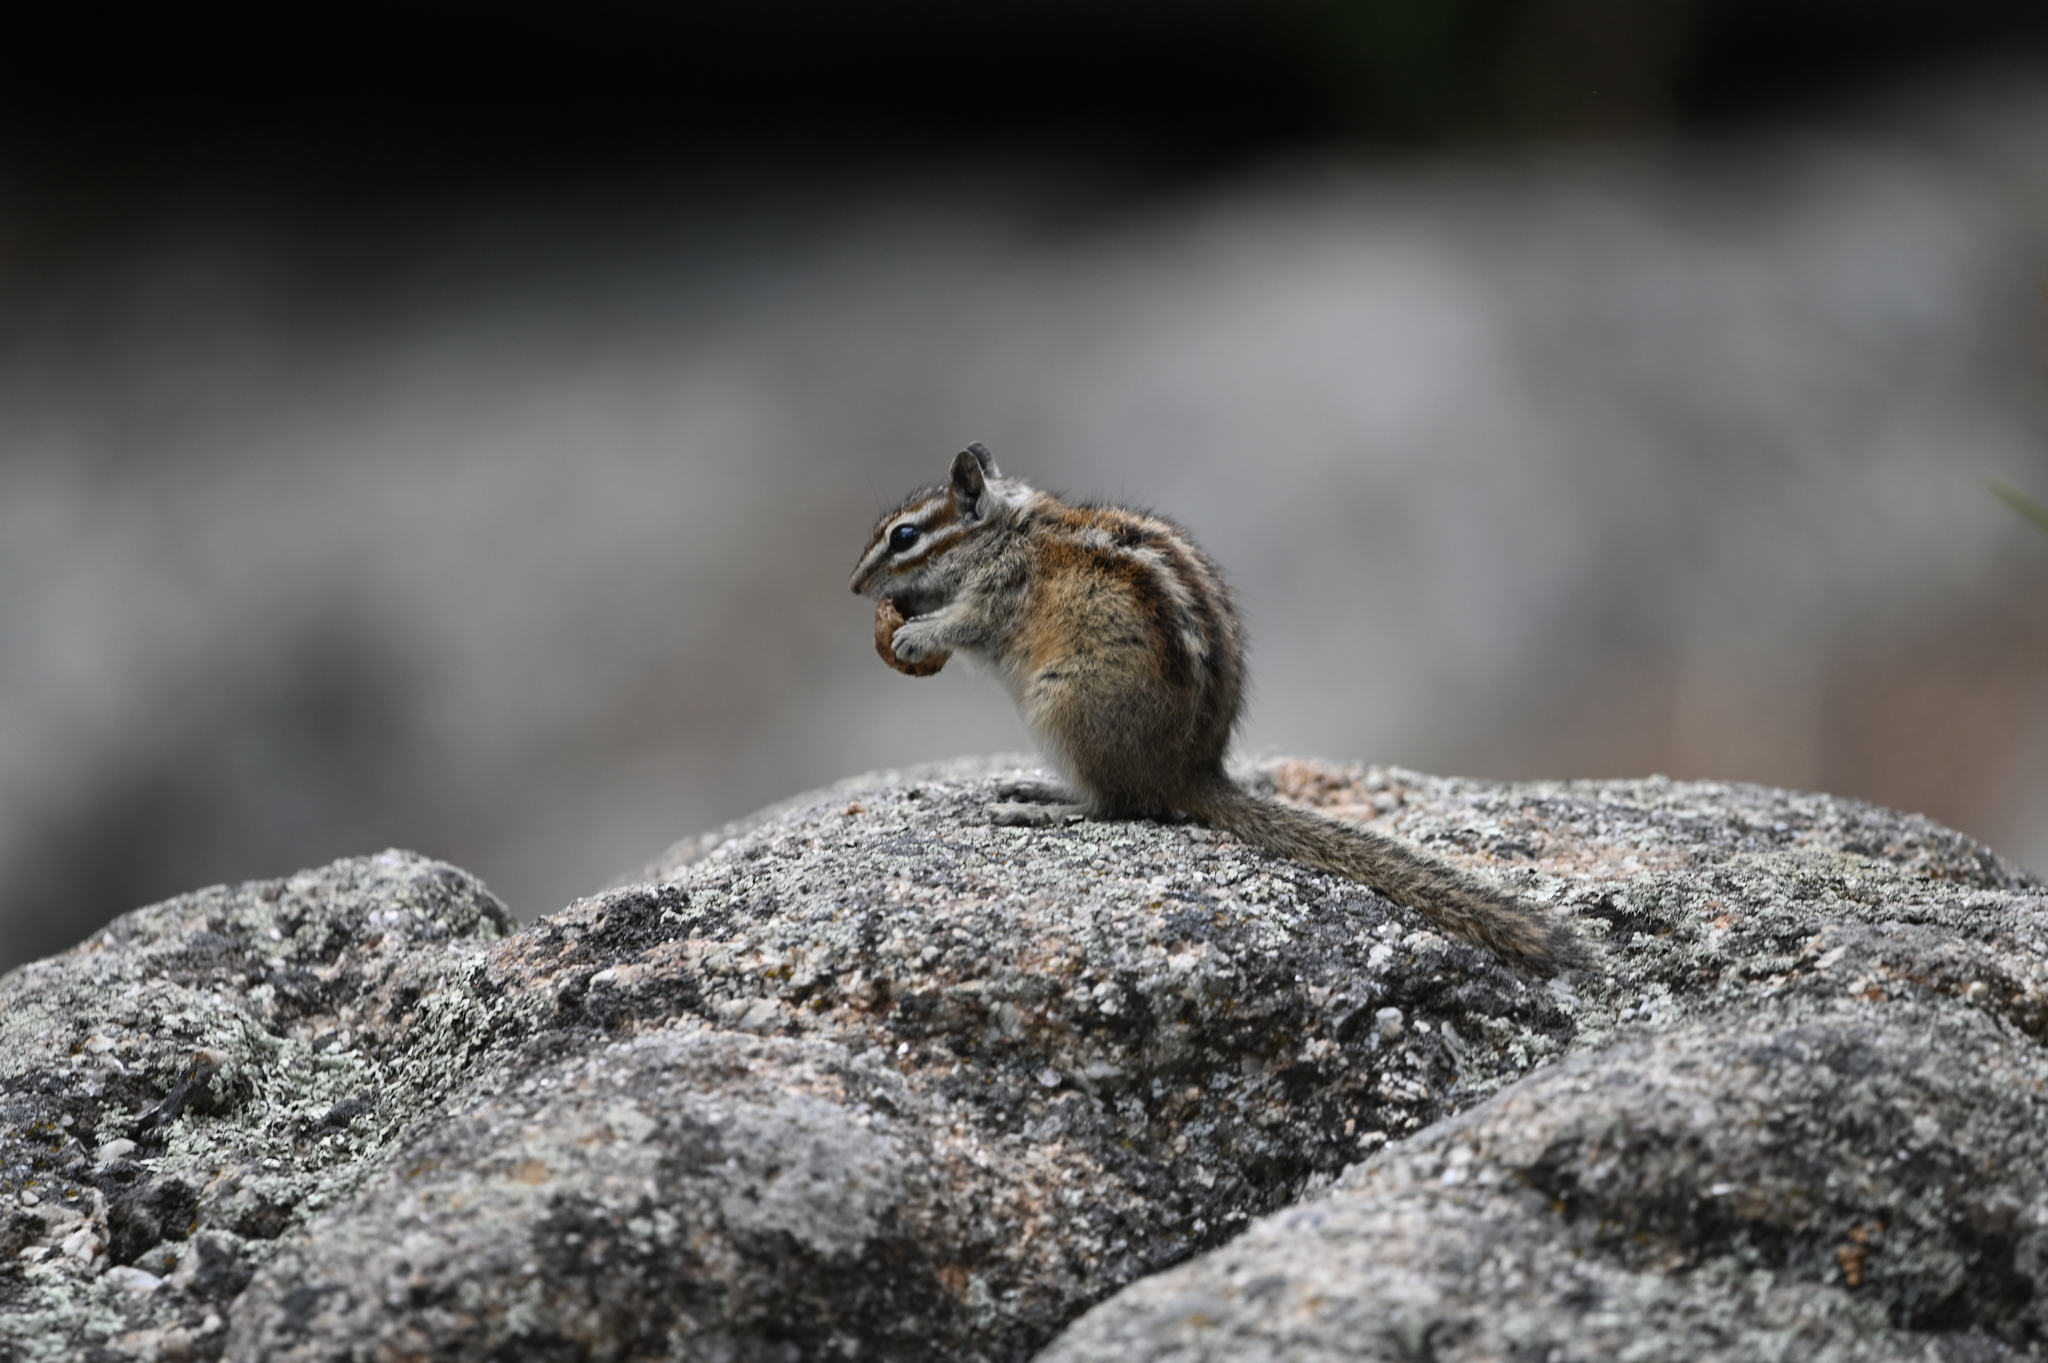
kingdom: Animalia
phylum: Chordata
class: Mammalia
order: Rodentia
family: Sciuridae
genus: Tamias
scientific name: Tamias minimus
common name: Least chipmunk
